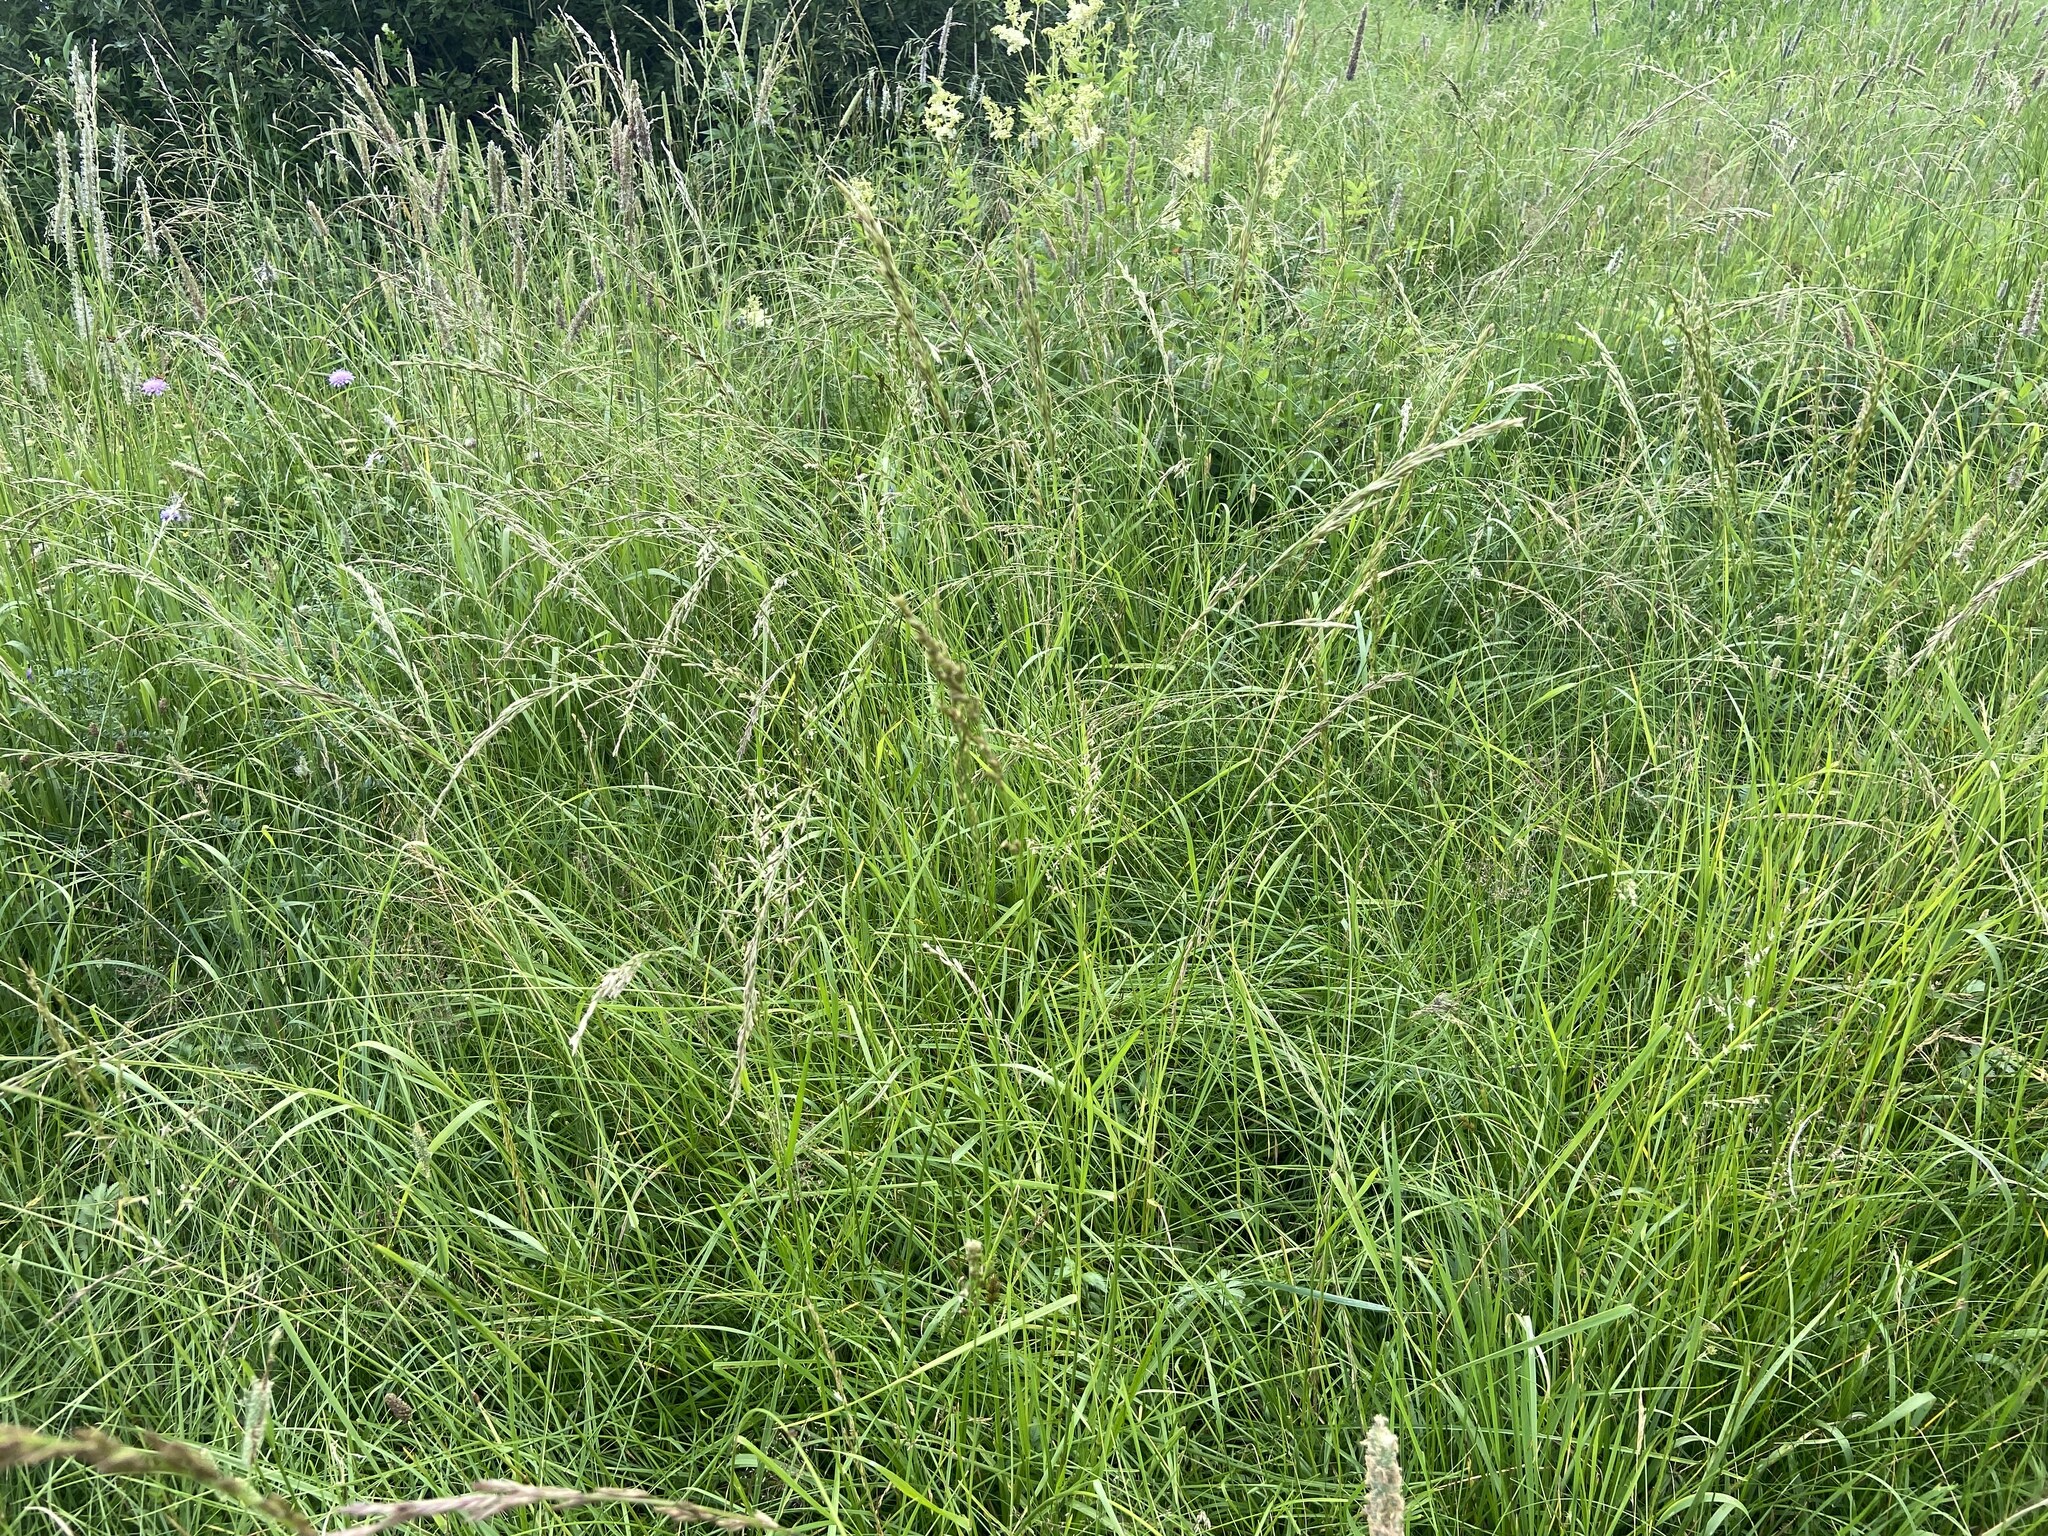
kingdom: Plantae
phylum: Tracheophyta
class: Liliopsida
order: Poales
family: Poaceae
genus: Lolium
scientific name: Lolium pratense
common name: Dover grass
